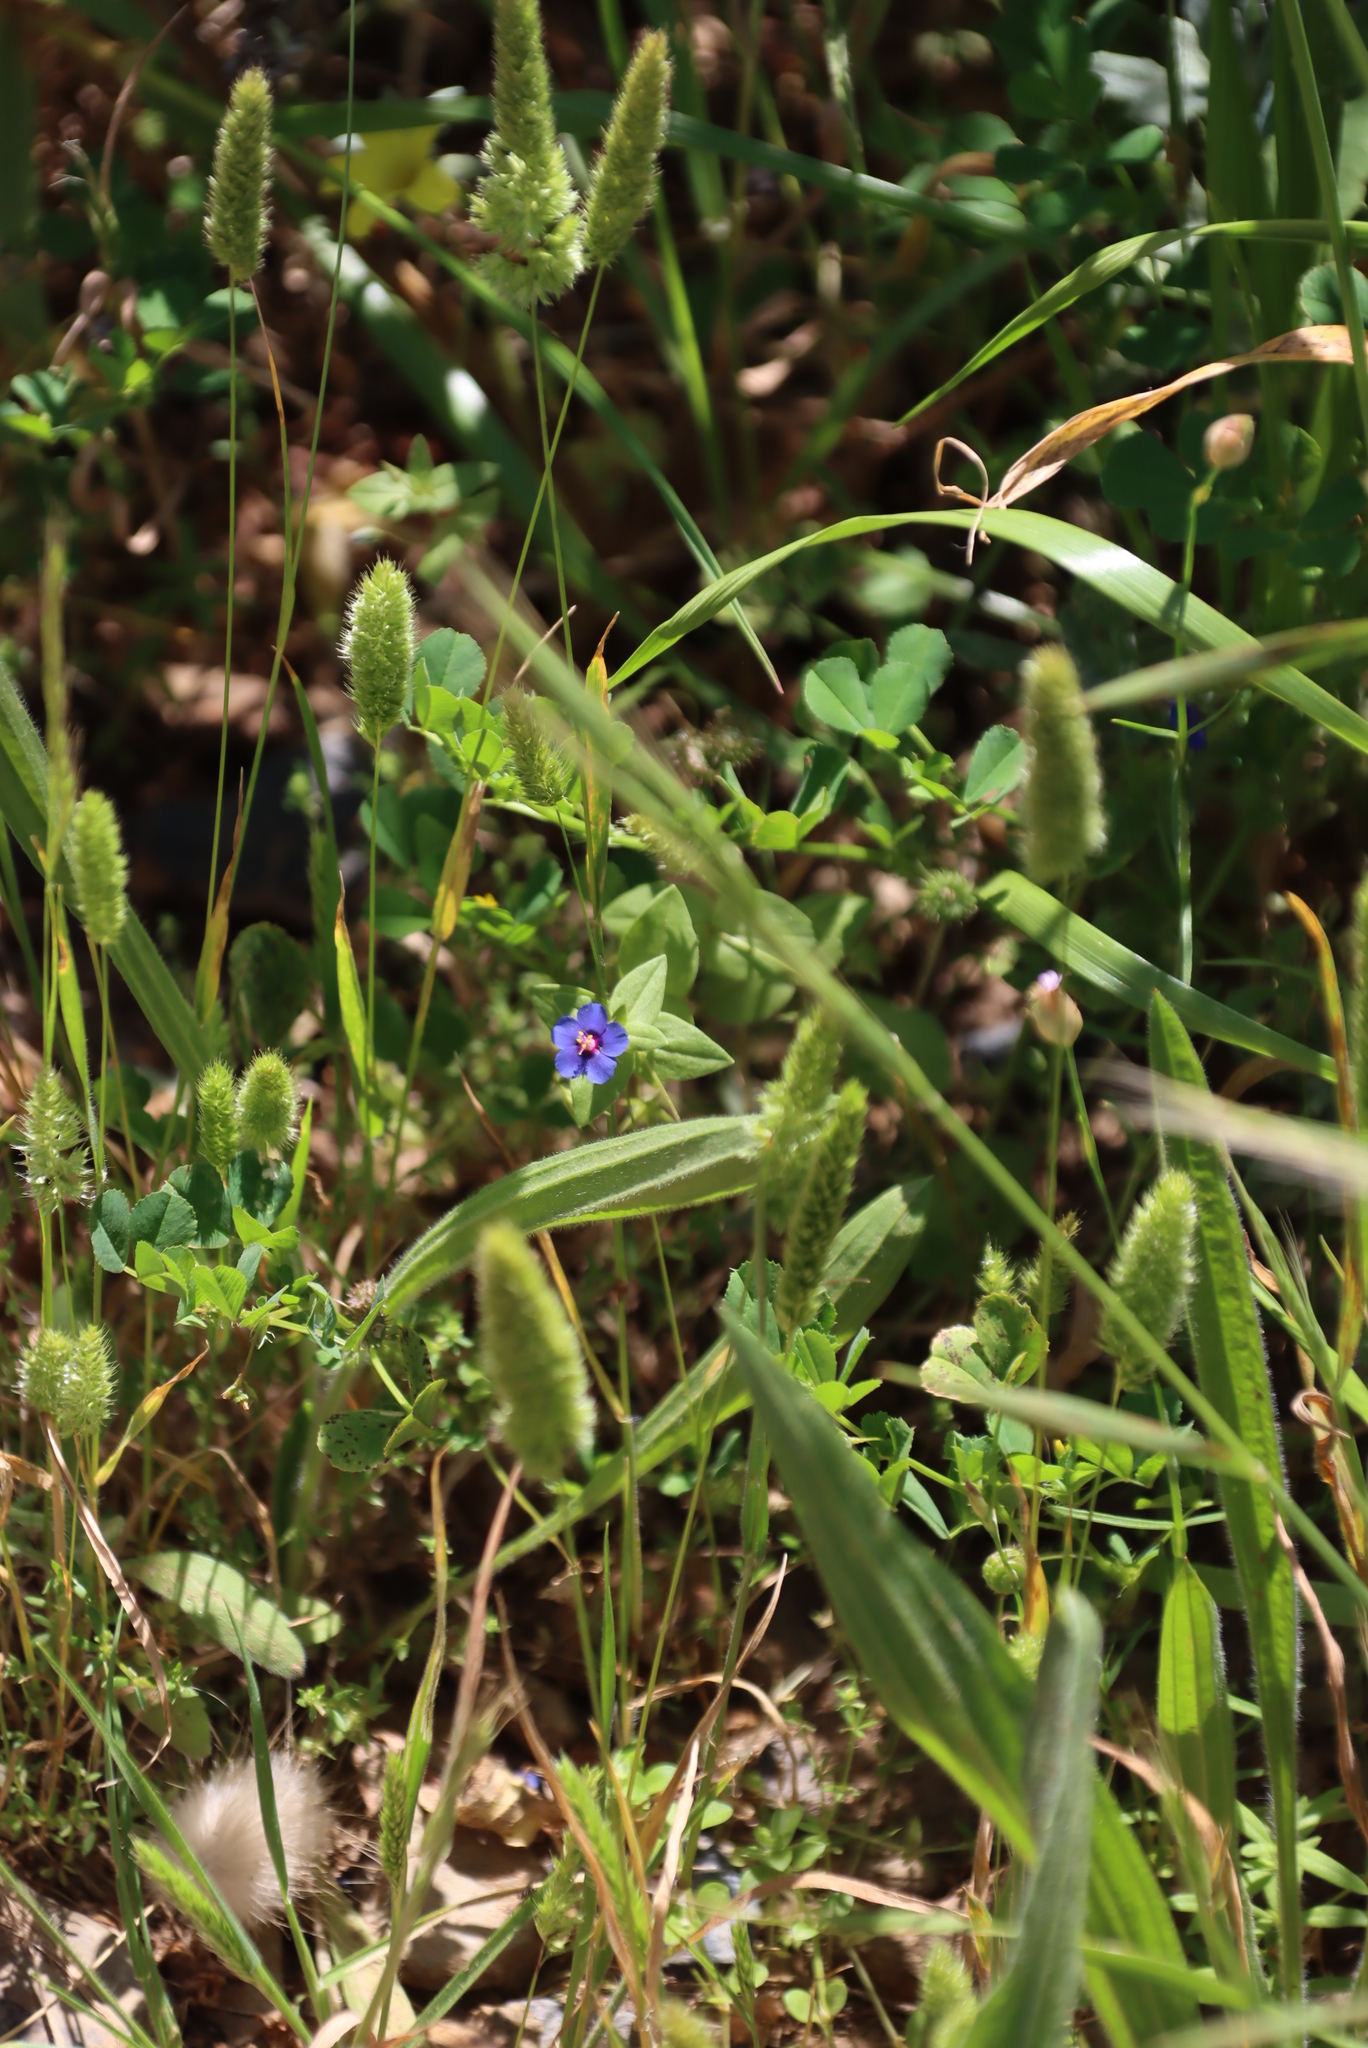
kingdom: Plantae
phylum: Tracheophyta
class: Magnoliopsida
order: Ericales
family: Primulaceae
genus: Lysimachia
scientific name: Lysimachia loeflingii
